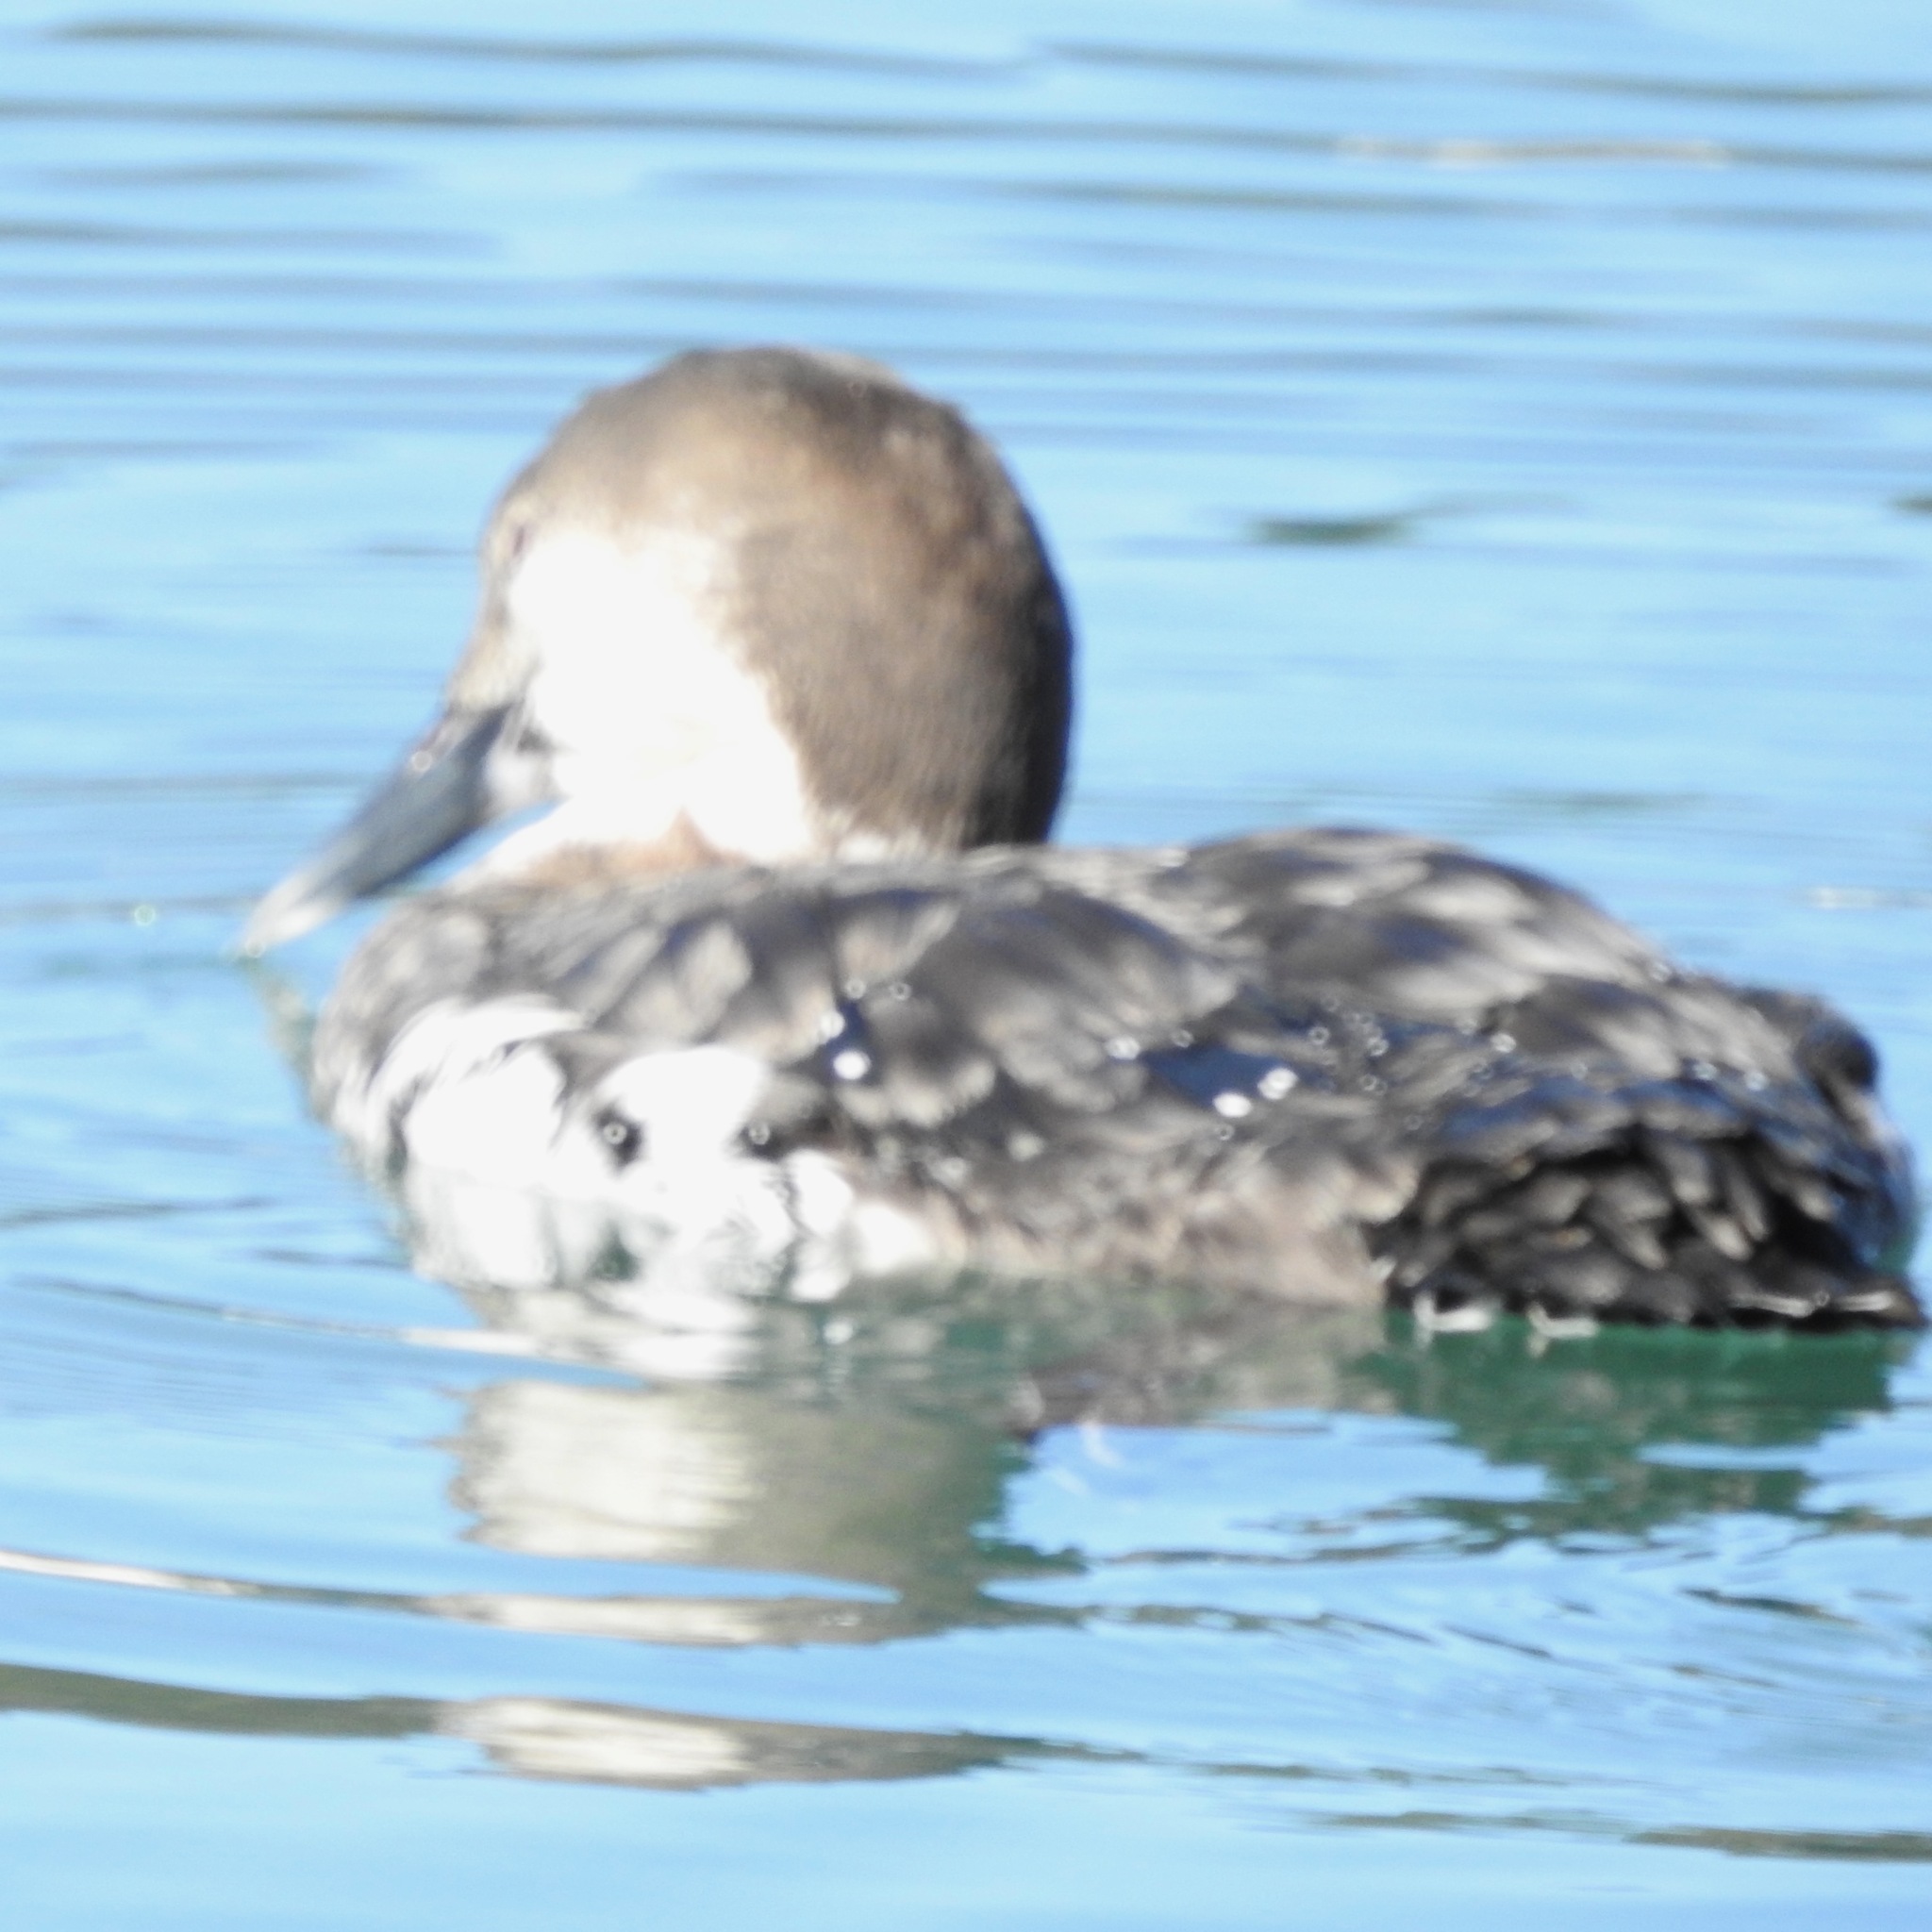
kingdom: Animalia
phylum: Chordata
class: Aves
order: Gaviiformes
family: Gaviidae
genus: Gavia
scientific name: Gavia immer
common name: Common loon
